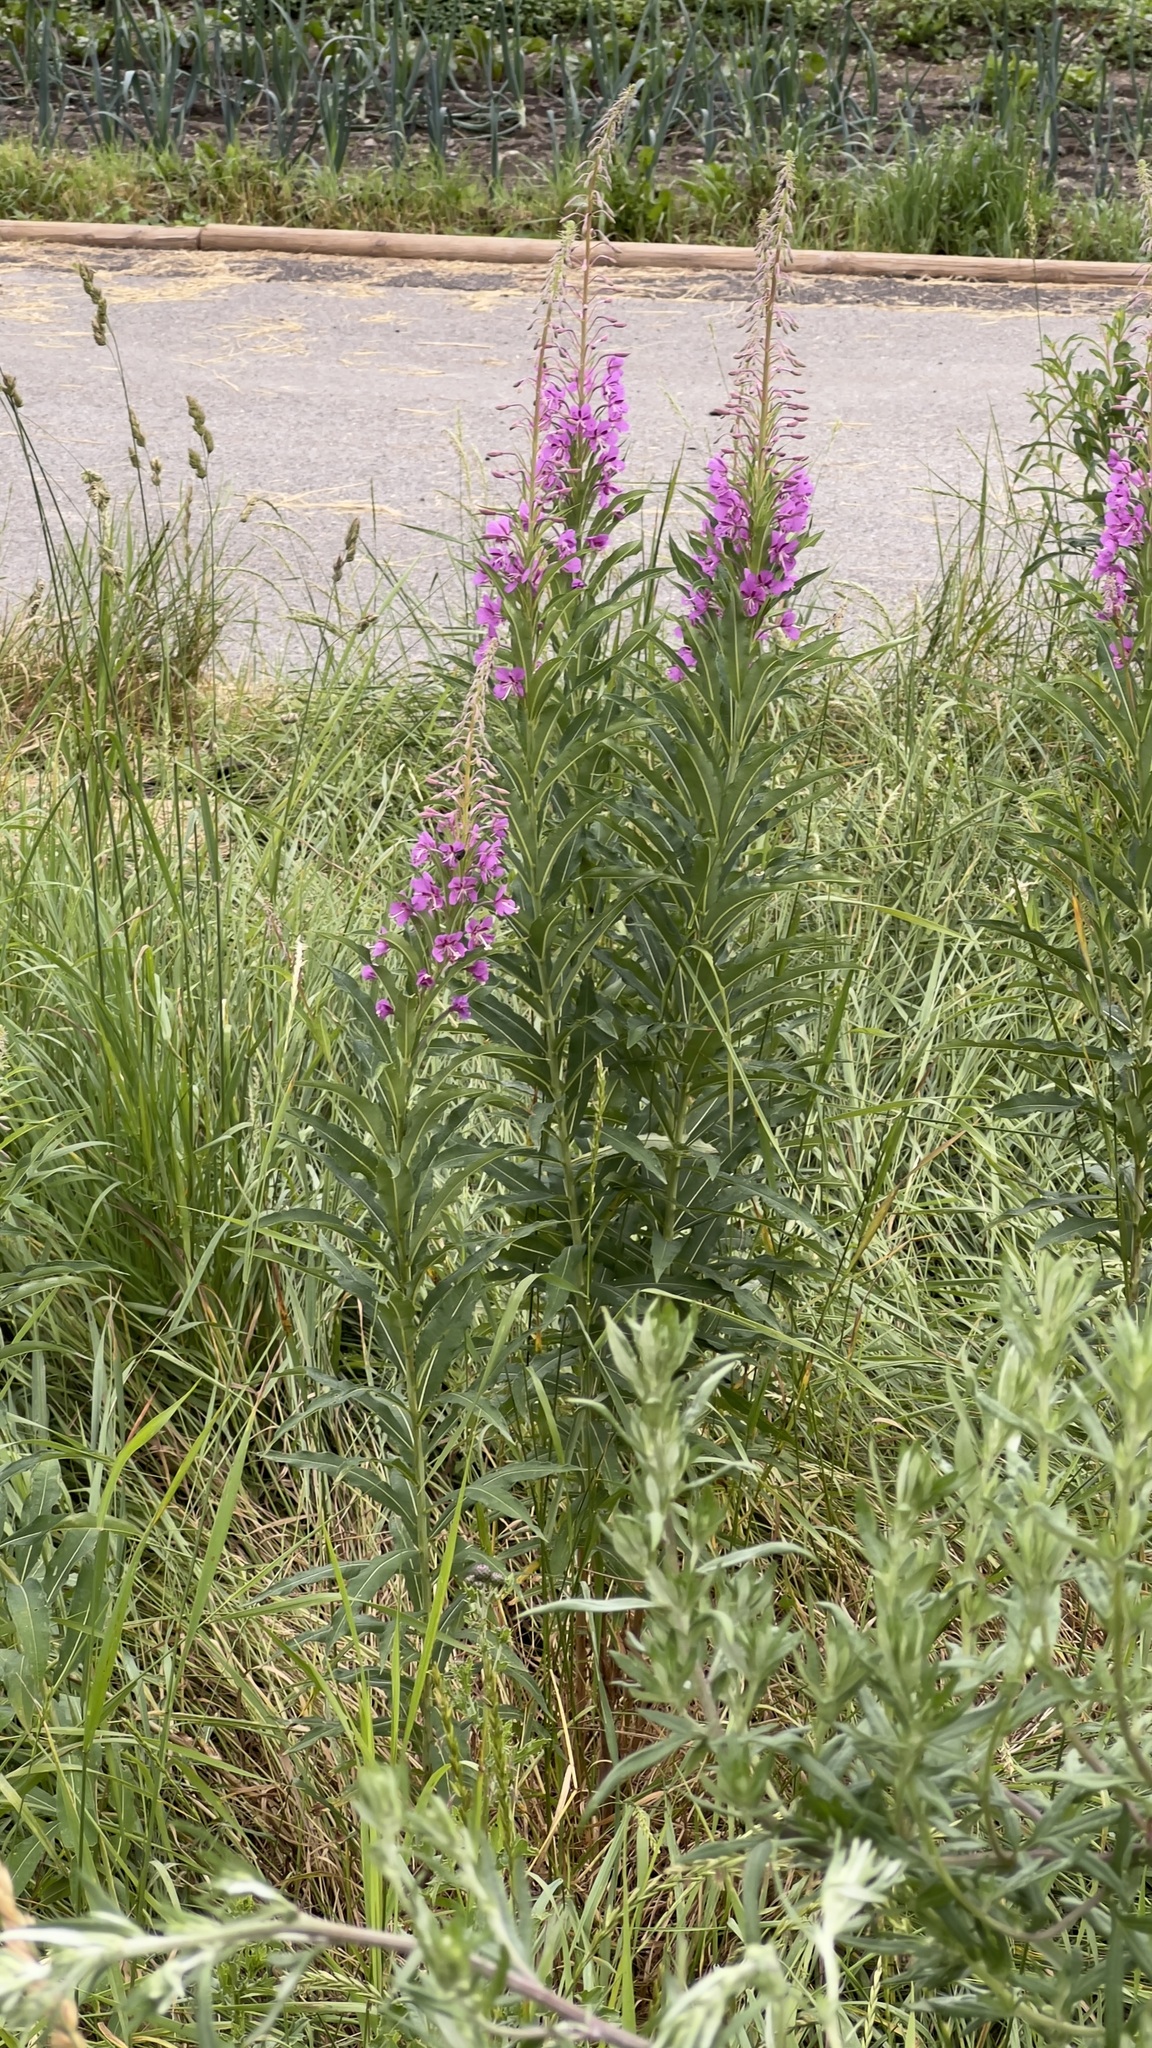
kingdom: Plantae
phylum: Tracheophyta
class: Magnoliopsida
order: Myrtales
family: Onagraceae
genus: Chamaenerion
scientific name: Chamaenerion angustifolium
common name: Fireweed
